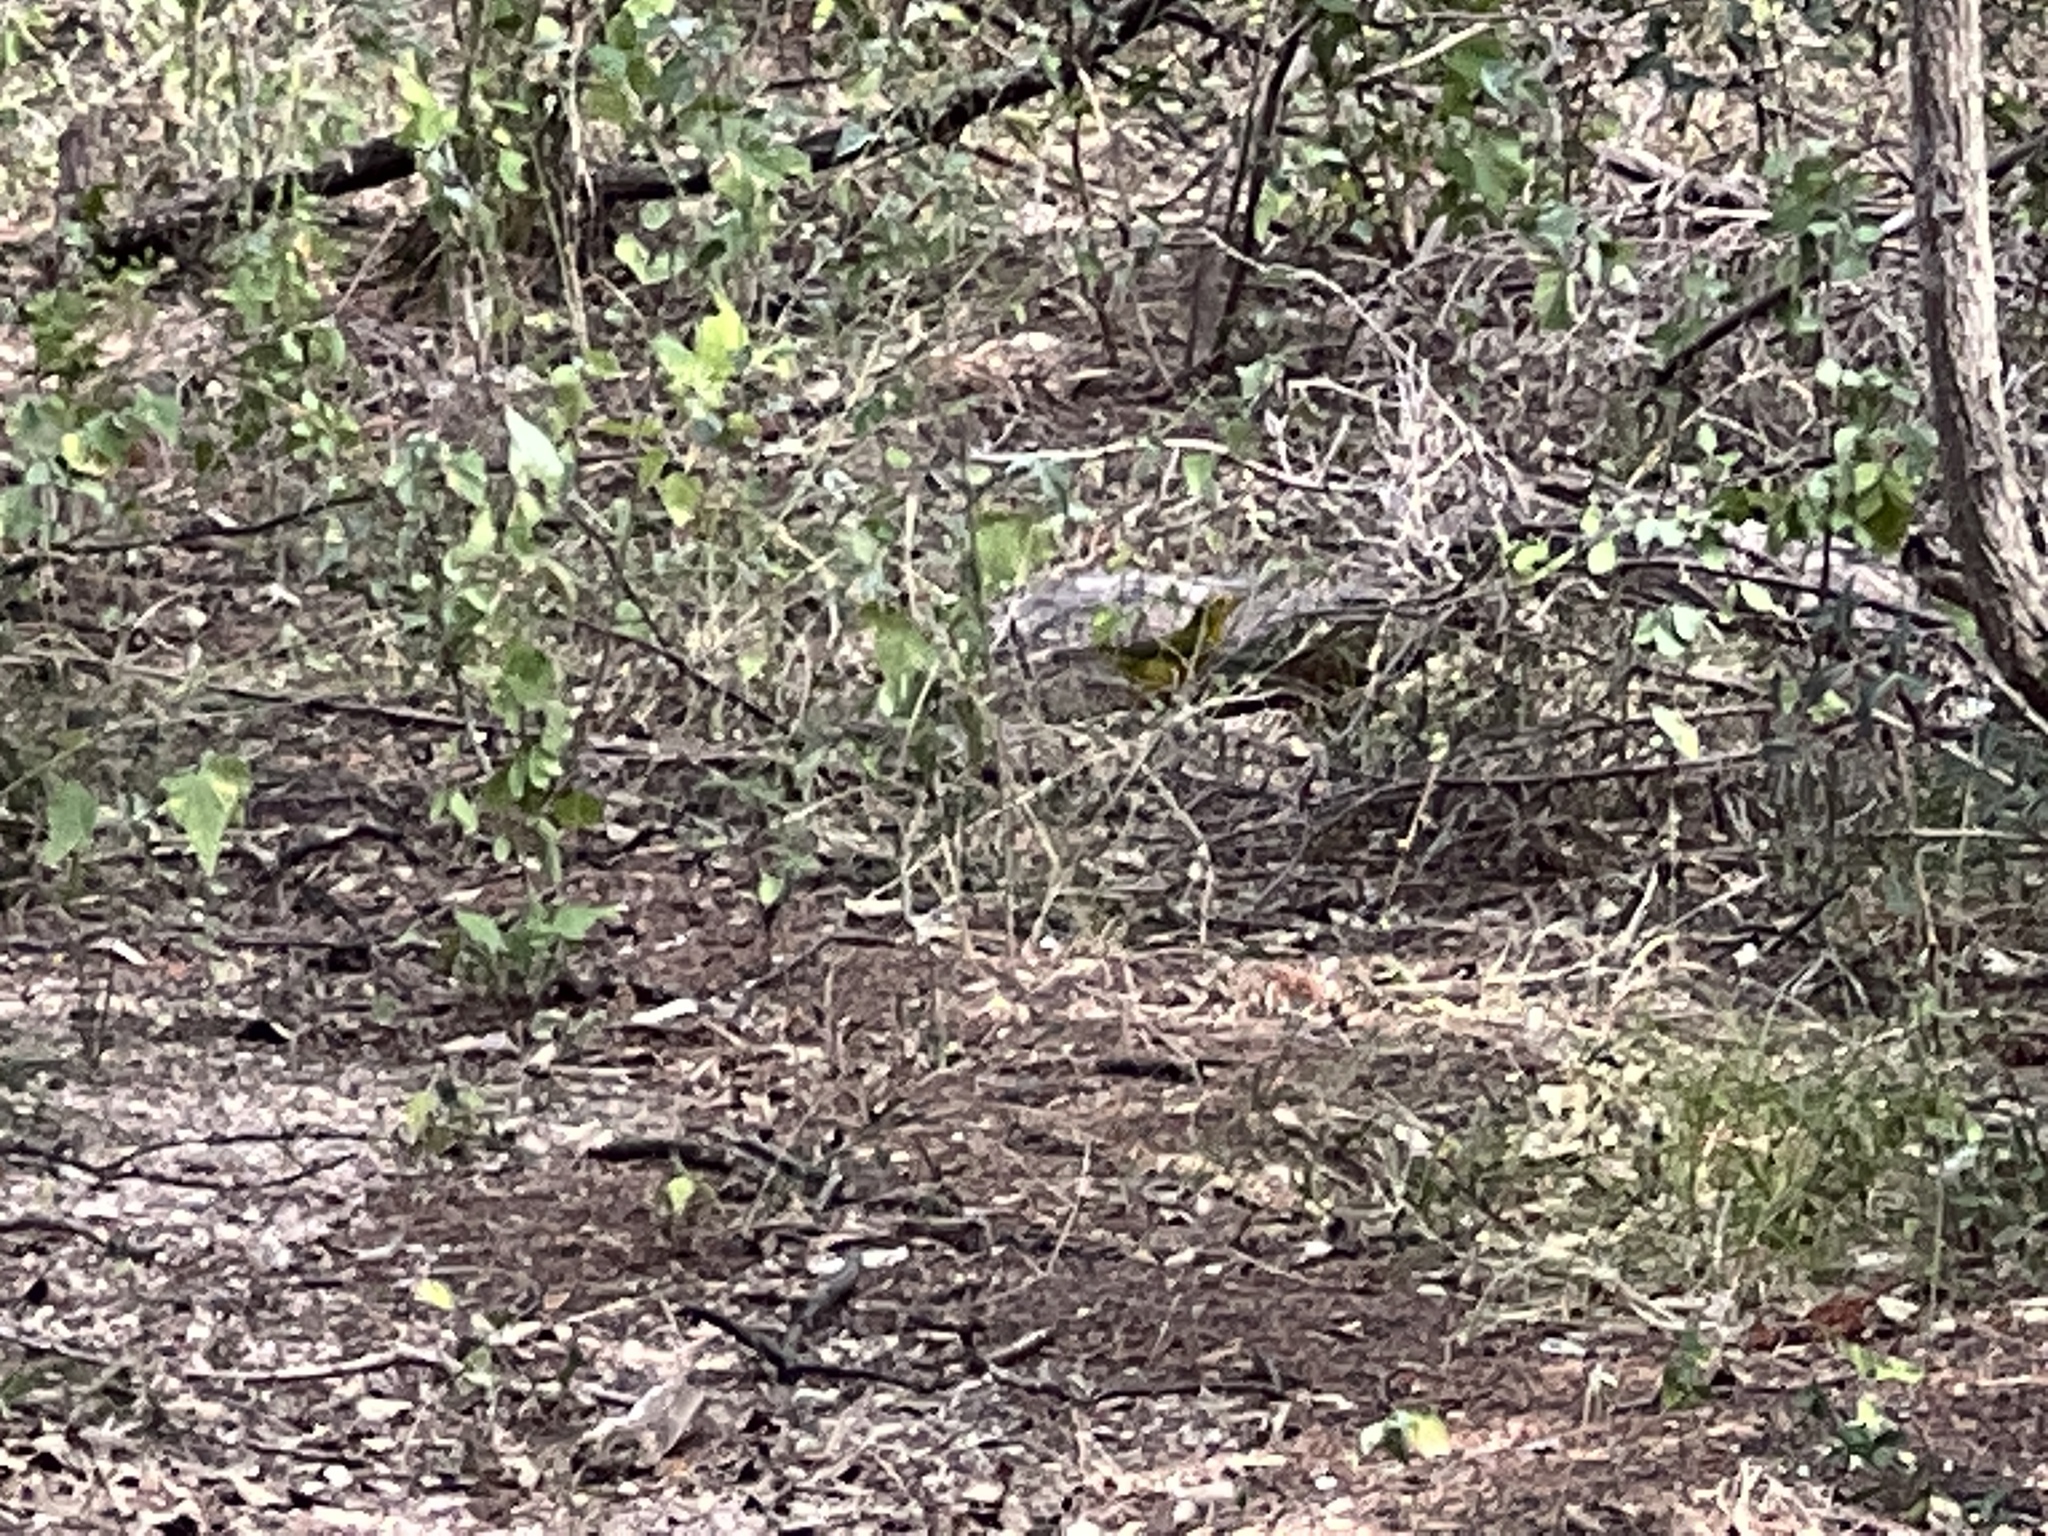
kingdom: Animalia
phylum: Chordata
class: Aves
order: Passeriformes
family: Parulidae
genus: Cardellina
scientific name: Cardellina pusilla
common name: Wilson's warbler
